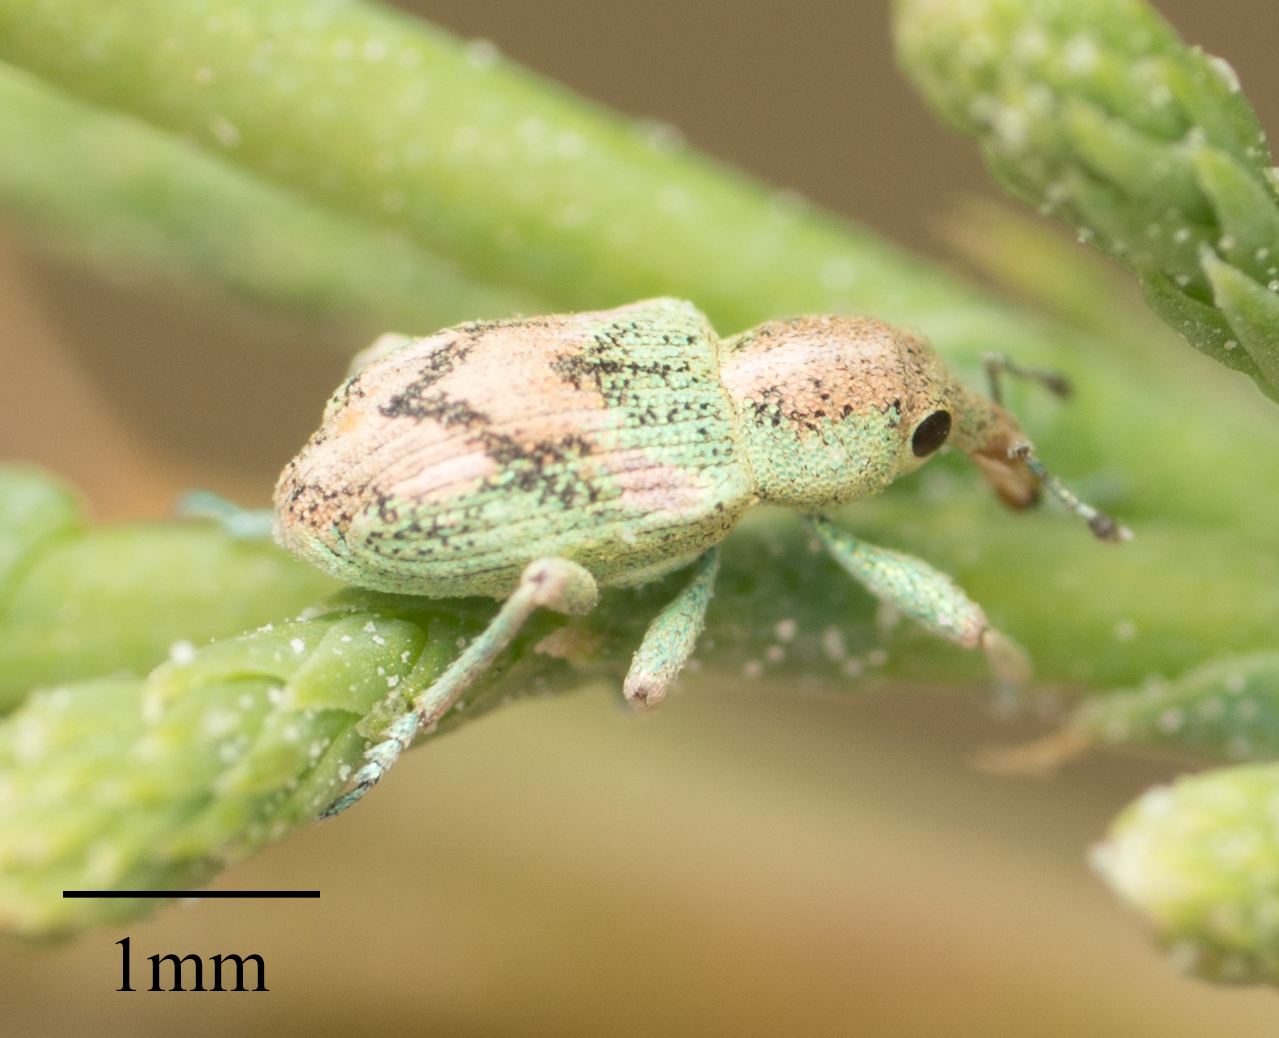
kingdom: Animalia
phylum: Arthropoda
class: Insecta
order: Coleoptera
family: Curculionidae
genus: Coniatus
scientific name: Coniatus splendidulus
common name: Splendid tamarisk weevil
